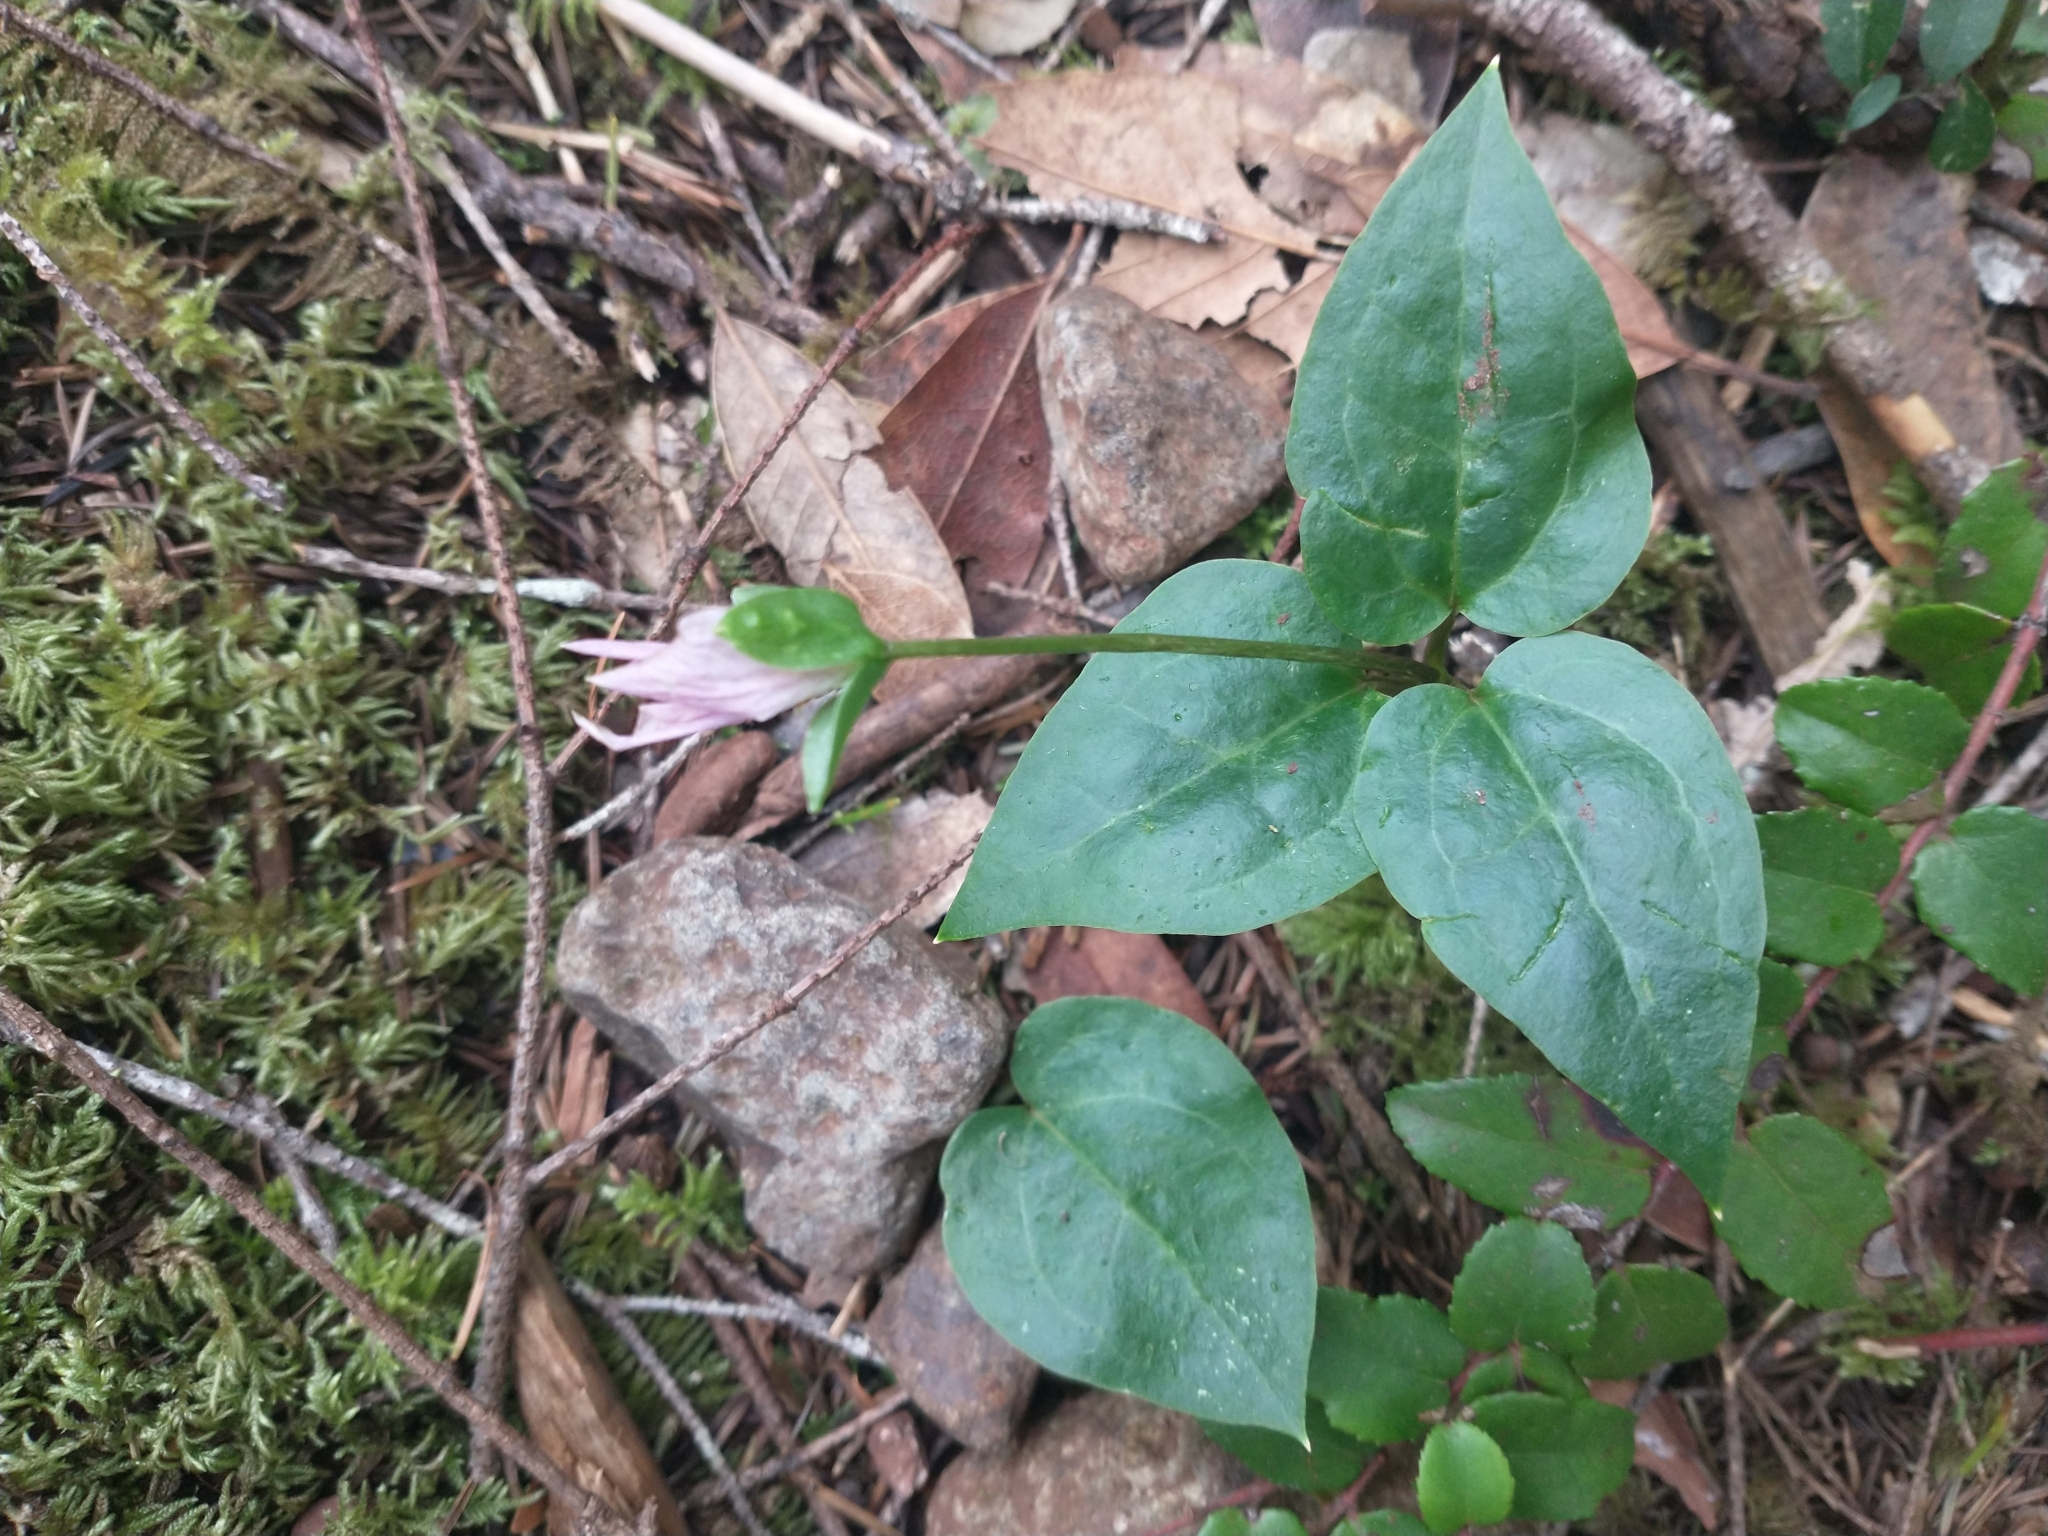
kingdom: Plantae
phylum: Tracheophyta
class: Liliopsida
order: Liliales
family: Melanthiaceae
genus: Pseudotrillium
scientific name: Pseudotrillium rivale
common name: Brook wakerobin
